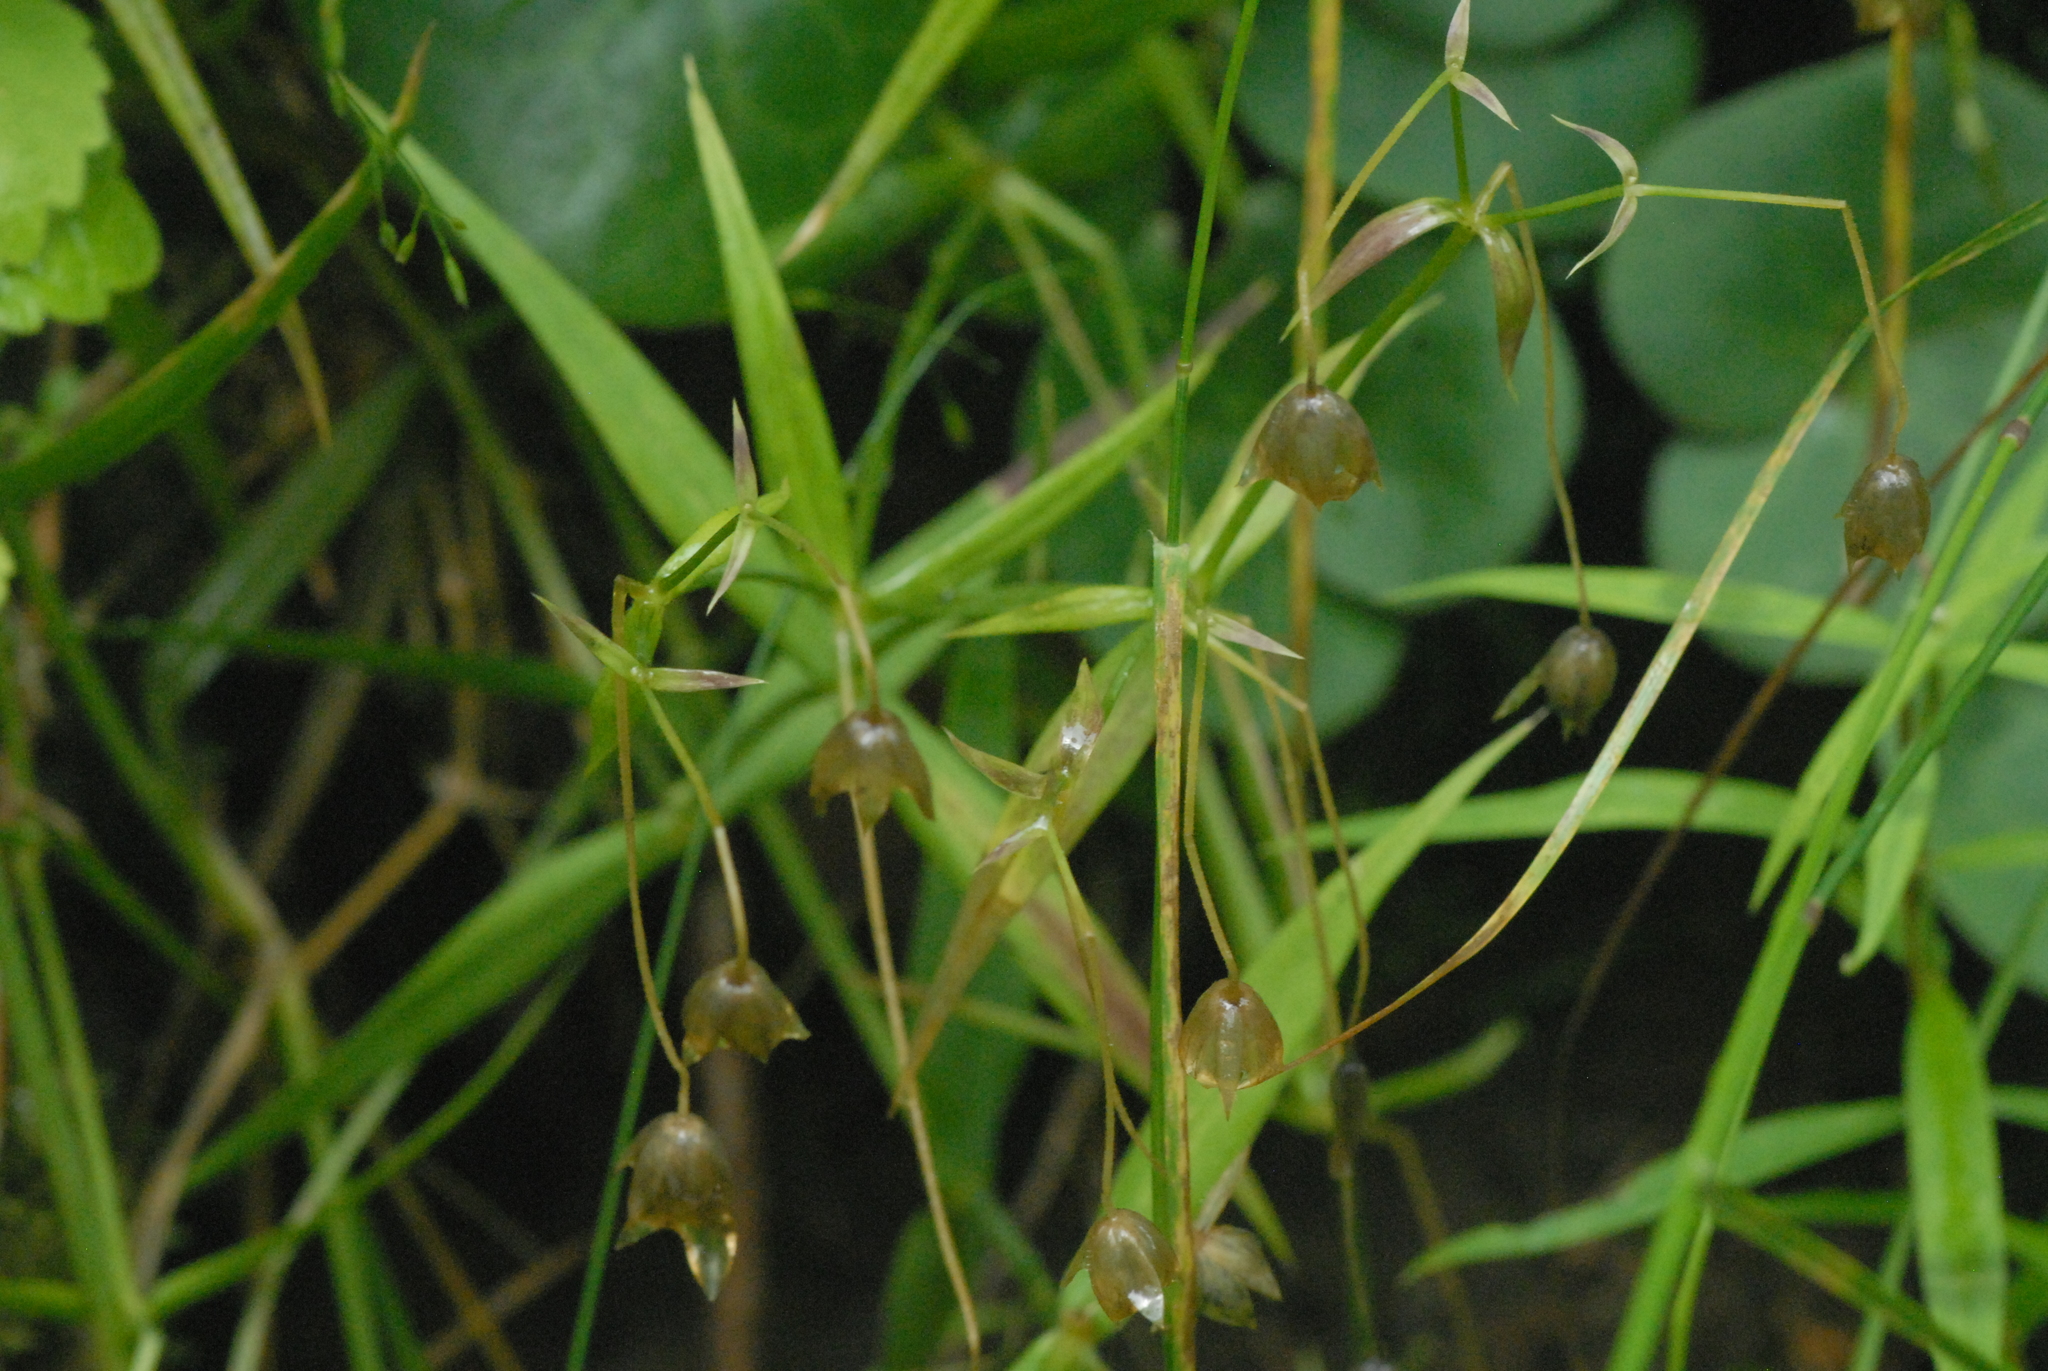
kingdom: Plantae
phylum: Tracheophyta
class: Magnoliopsida
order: Caryophyllales
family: Caryophyllaceae
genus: Rabelera
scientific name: Rabelera holostea
